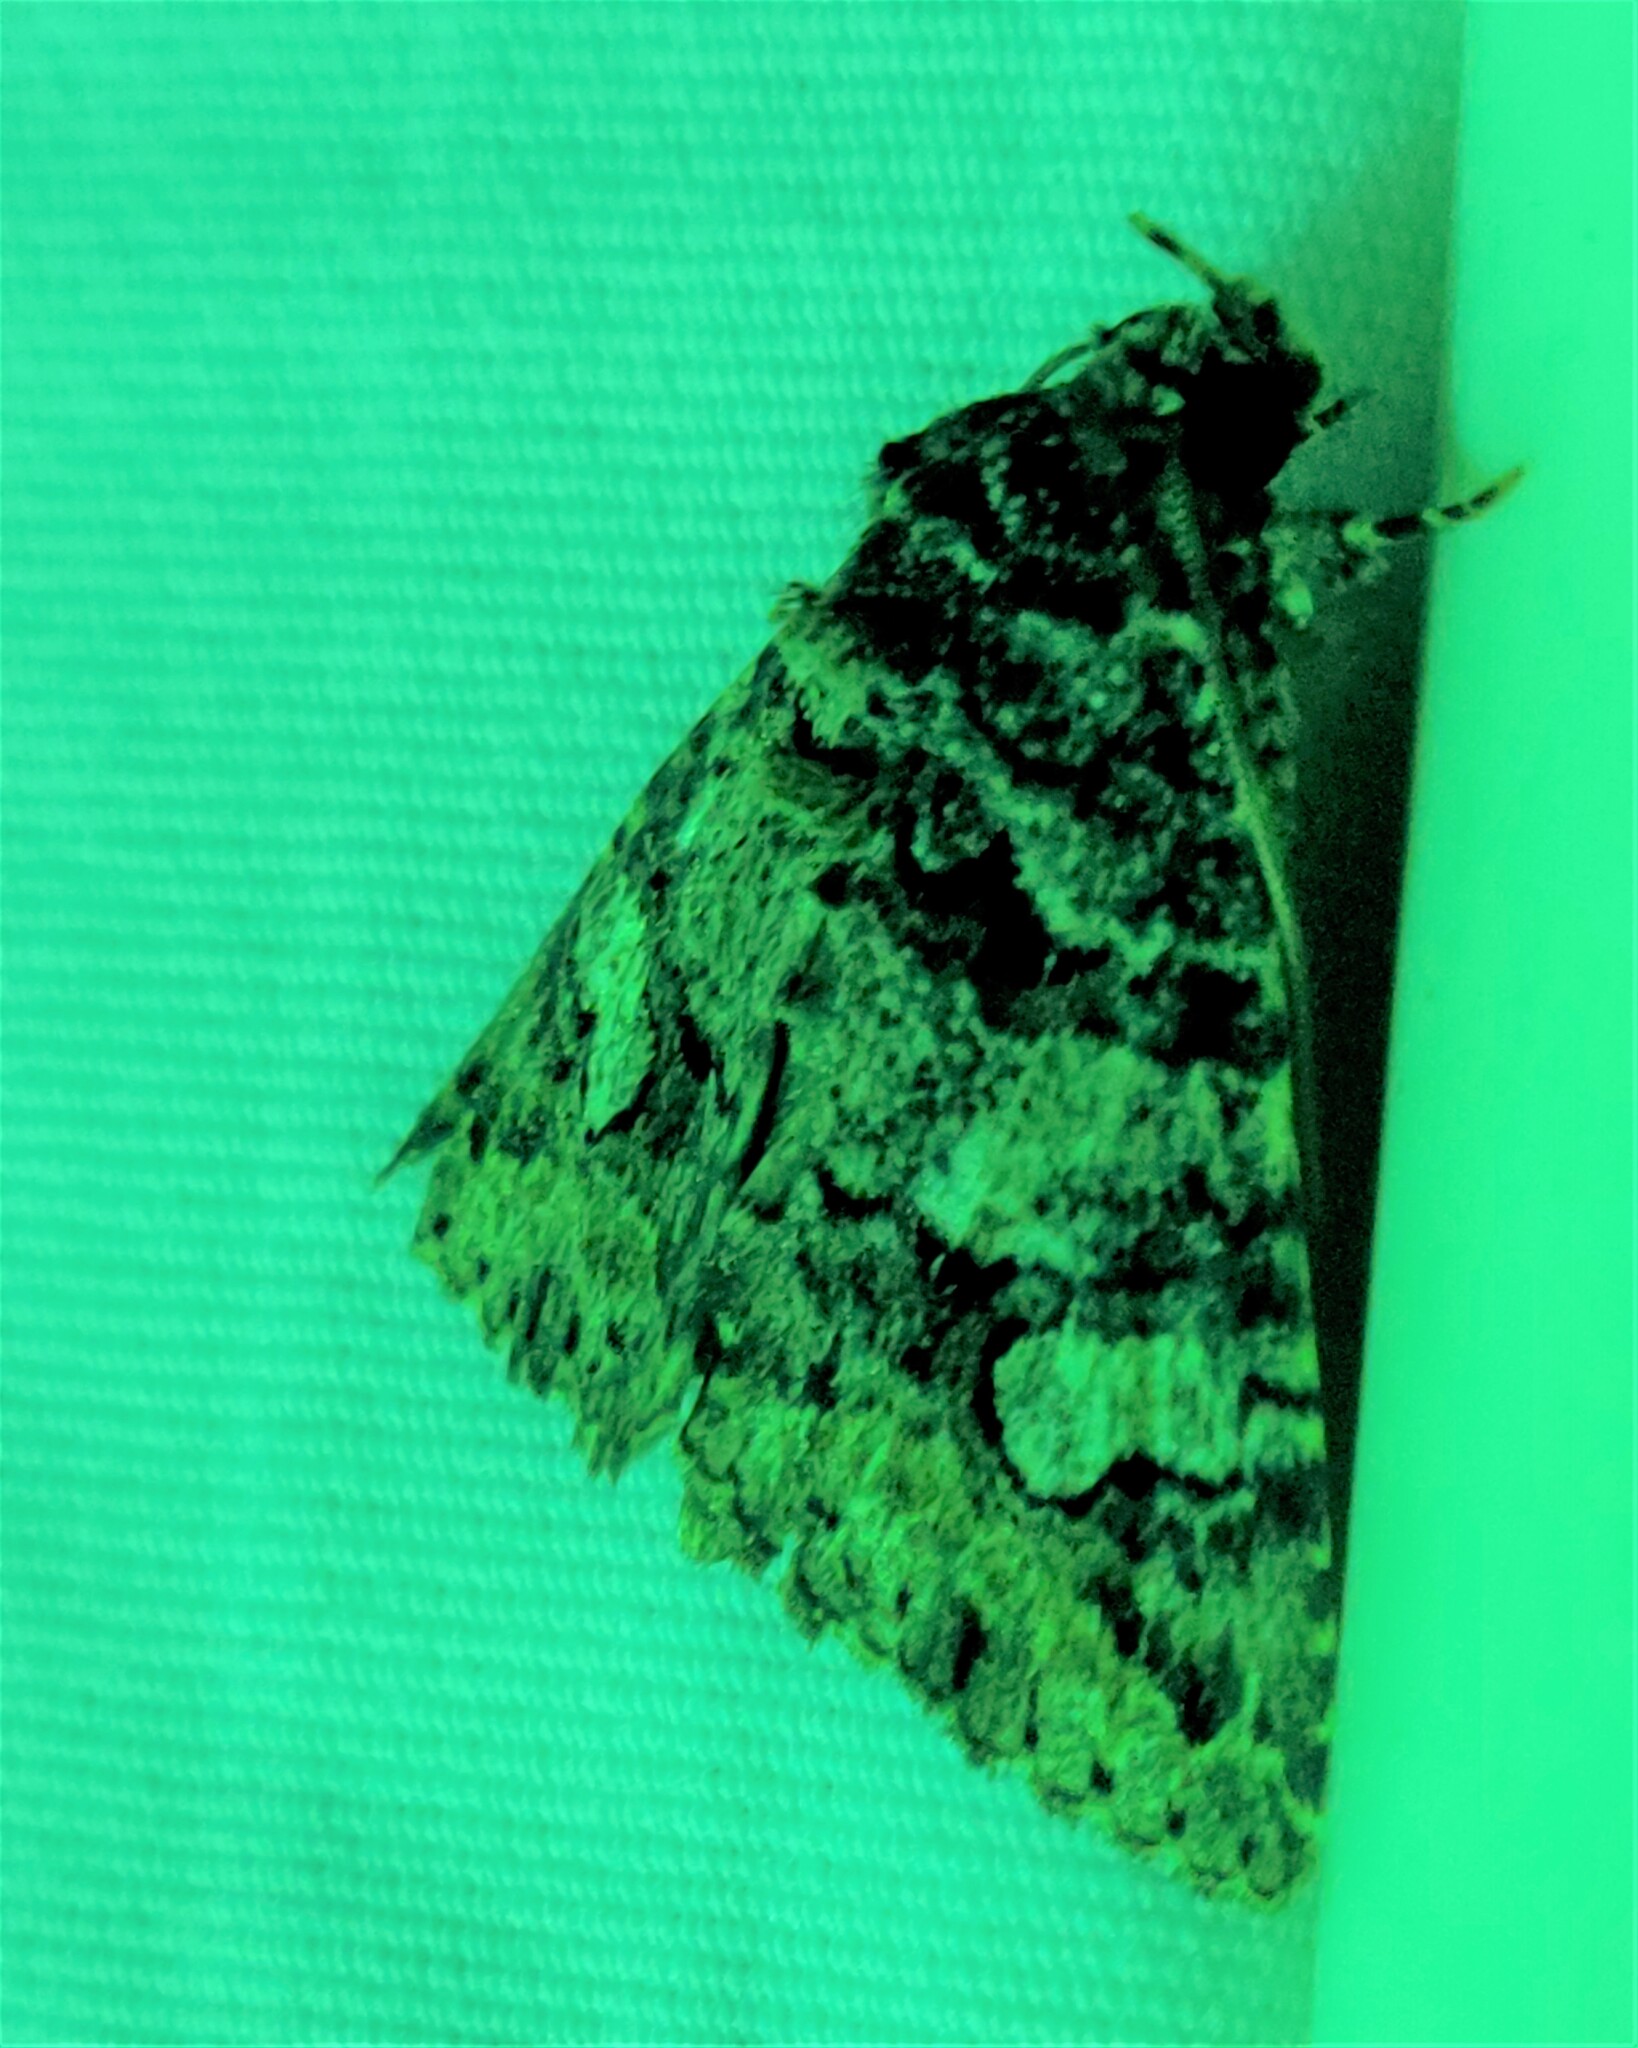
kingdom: Animalia
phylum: Arthropoda
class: Insecta
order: Lepidoptera
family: Erebidae
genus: Elousa
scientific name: Elousa mima
